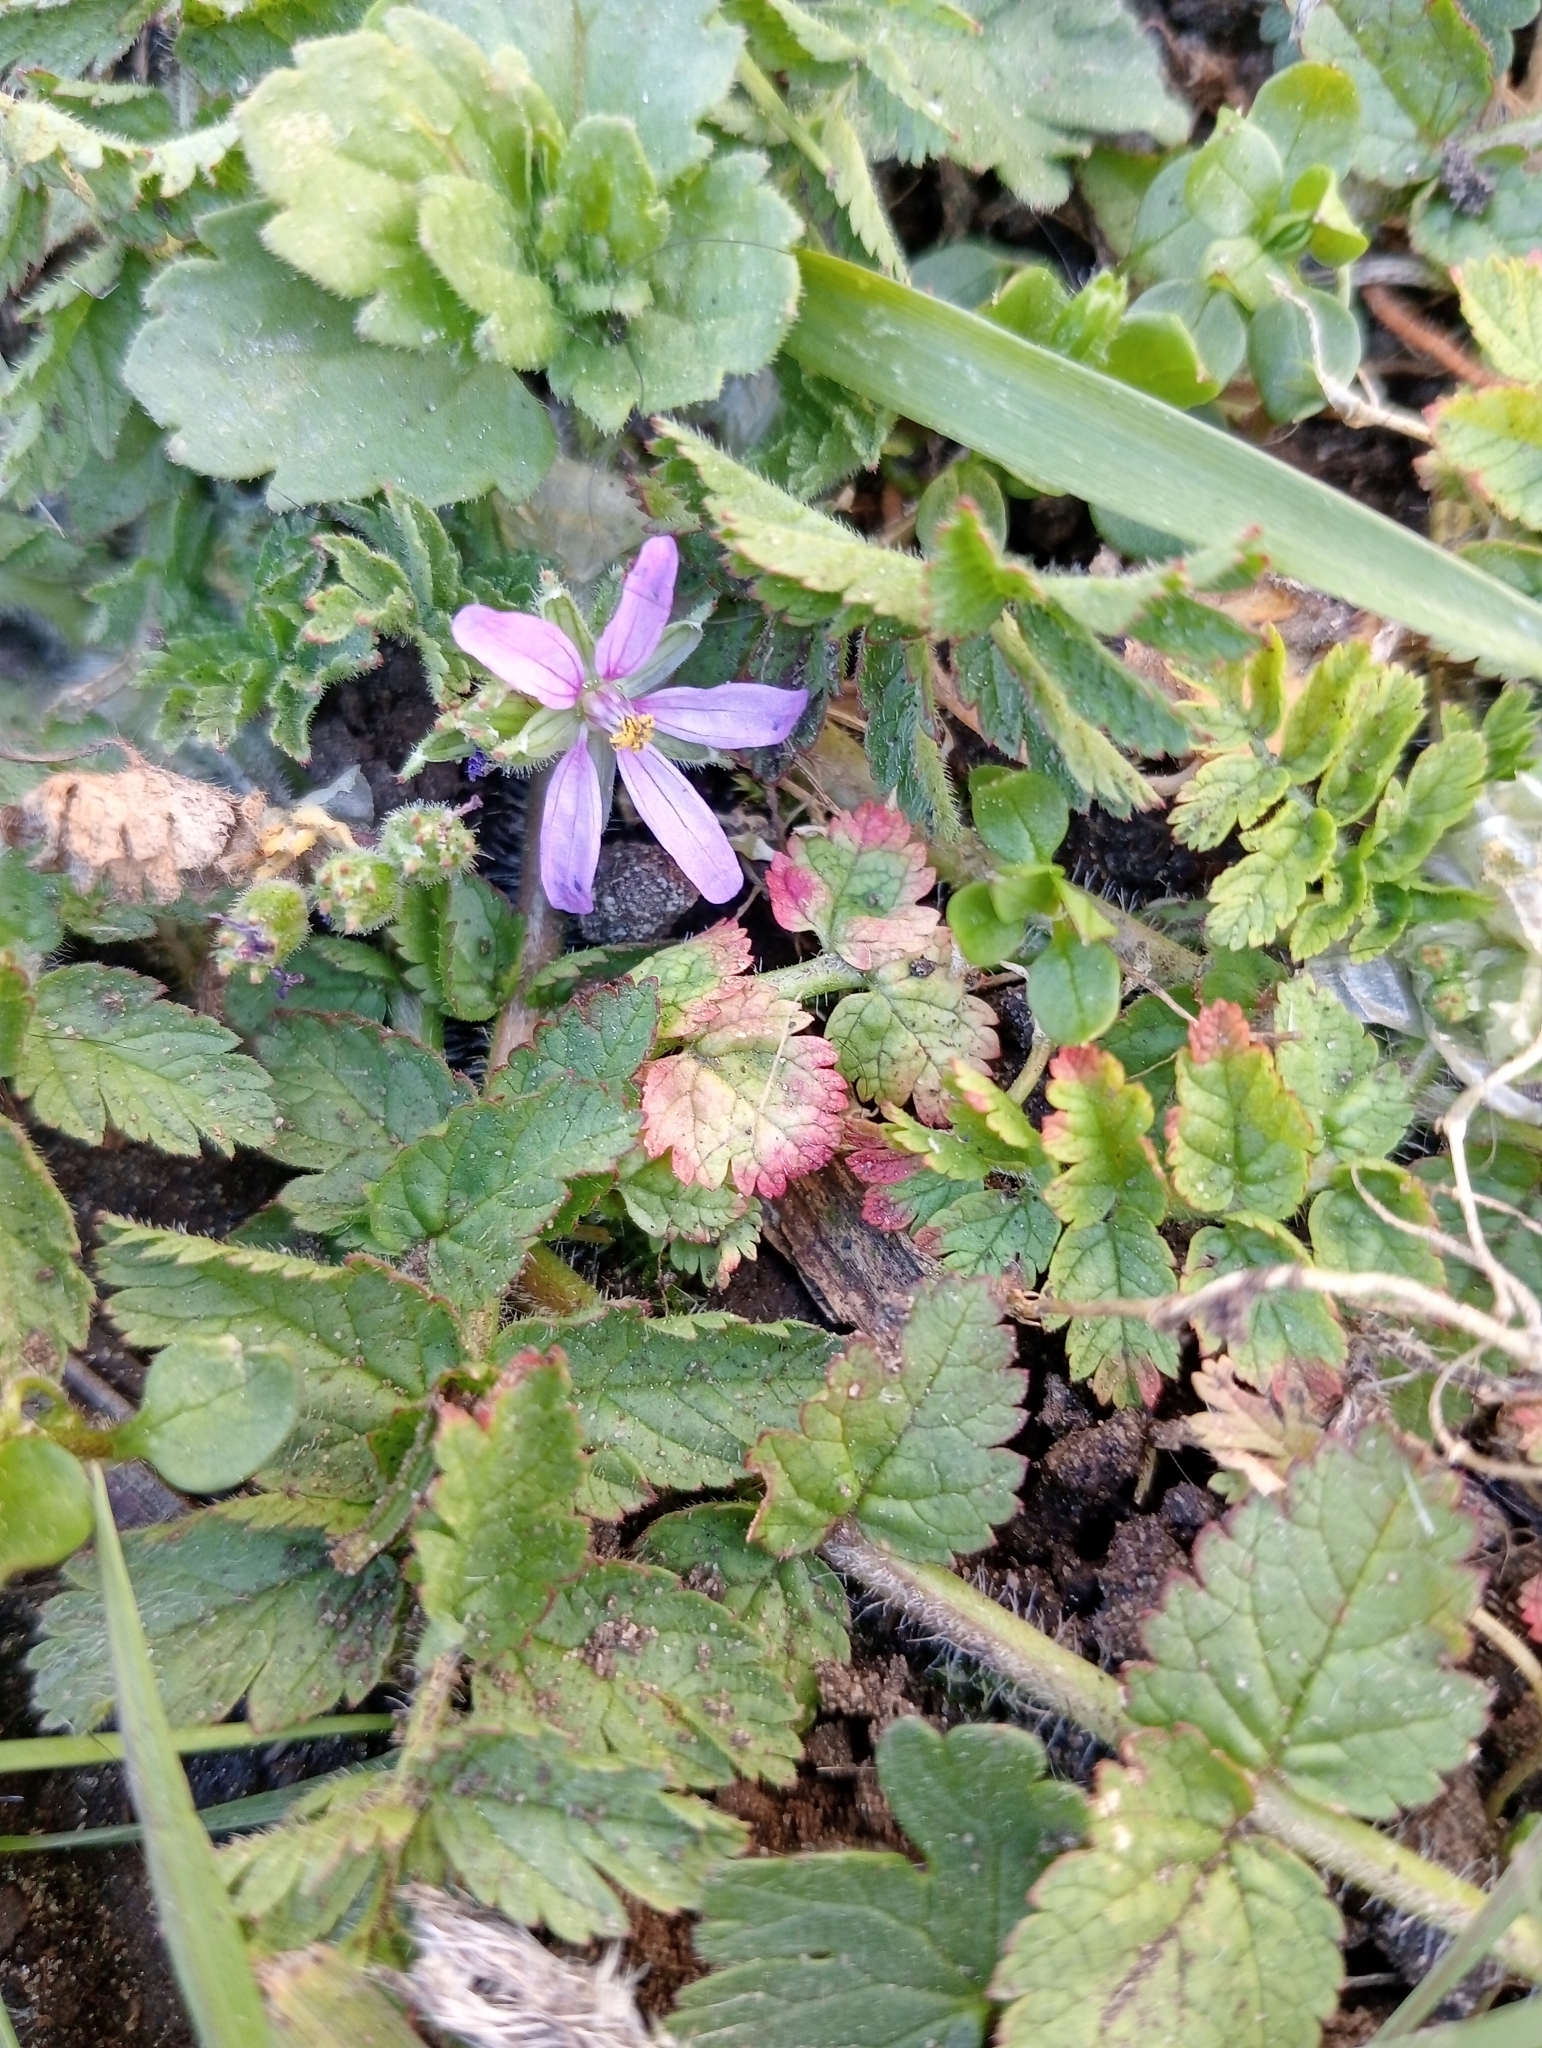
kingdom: Plantae
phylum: Tracheophyta
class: Magnoliopsida
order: Geraniales
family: Geraniaceae
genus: Erodium
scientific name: Erodium moschatum
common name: Musk stork's-bill
